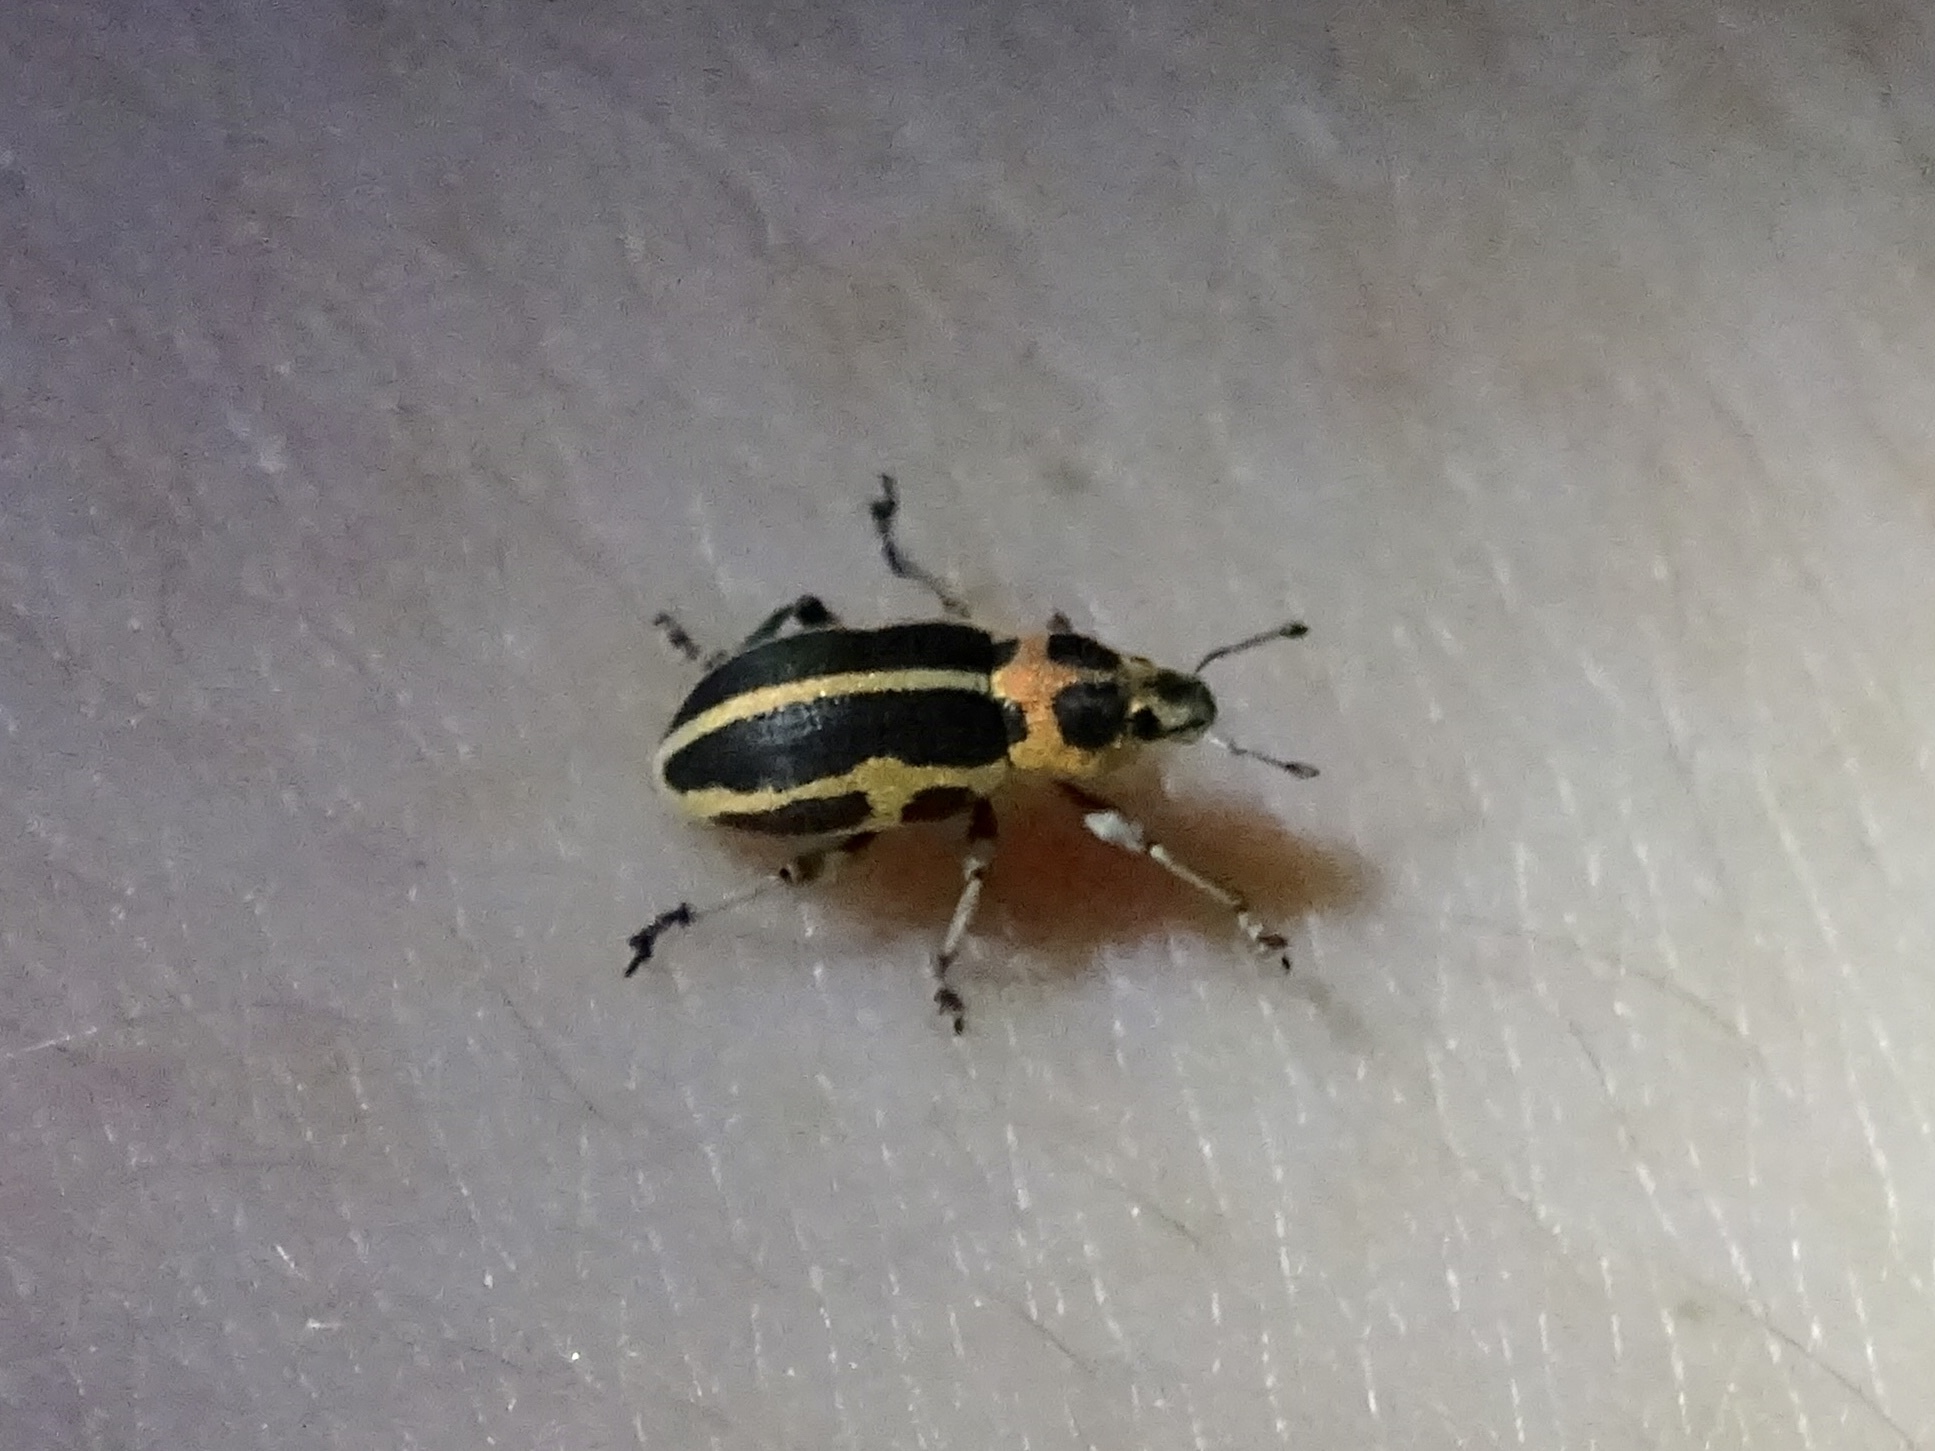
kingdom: Animalia
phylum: Arthropoda
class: Insecta
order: Coleoptera
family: Curculionidae
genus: Eudiagogus
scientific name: Eudiagogus pulcher
